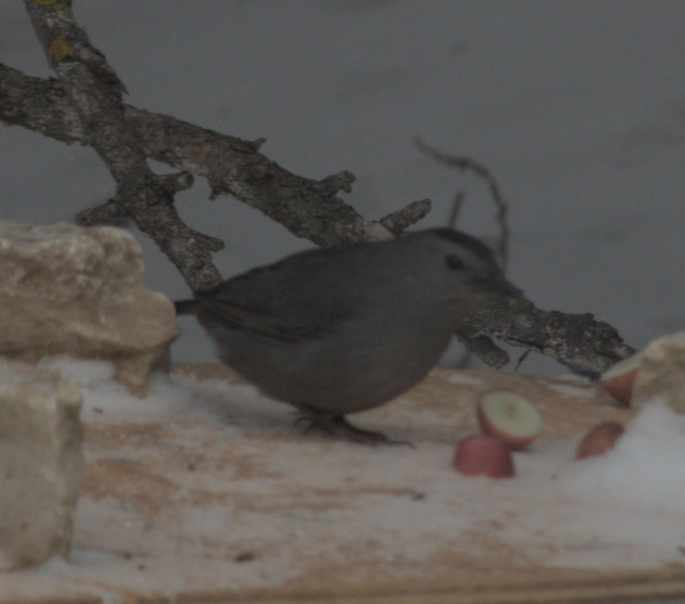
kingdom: Animalia
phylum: Chordata
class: Aves
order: Passeriformes
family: Mimidae
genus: Dumetella
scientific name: Dumetella carolinensis
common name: Gray catbird
